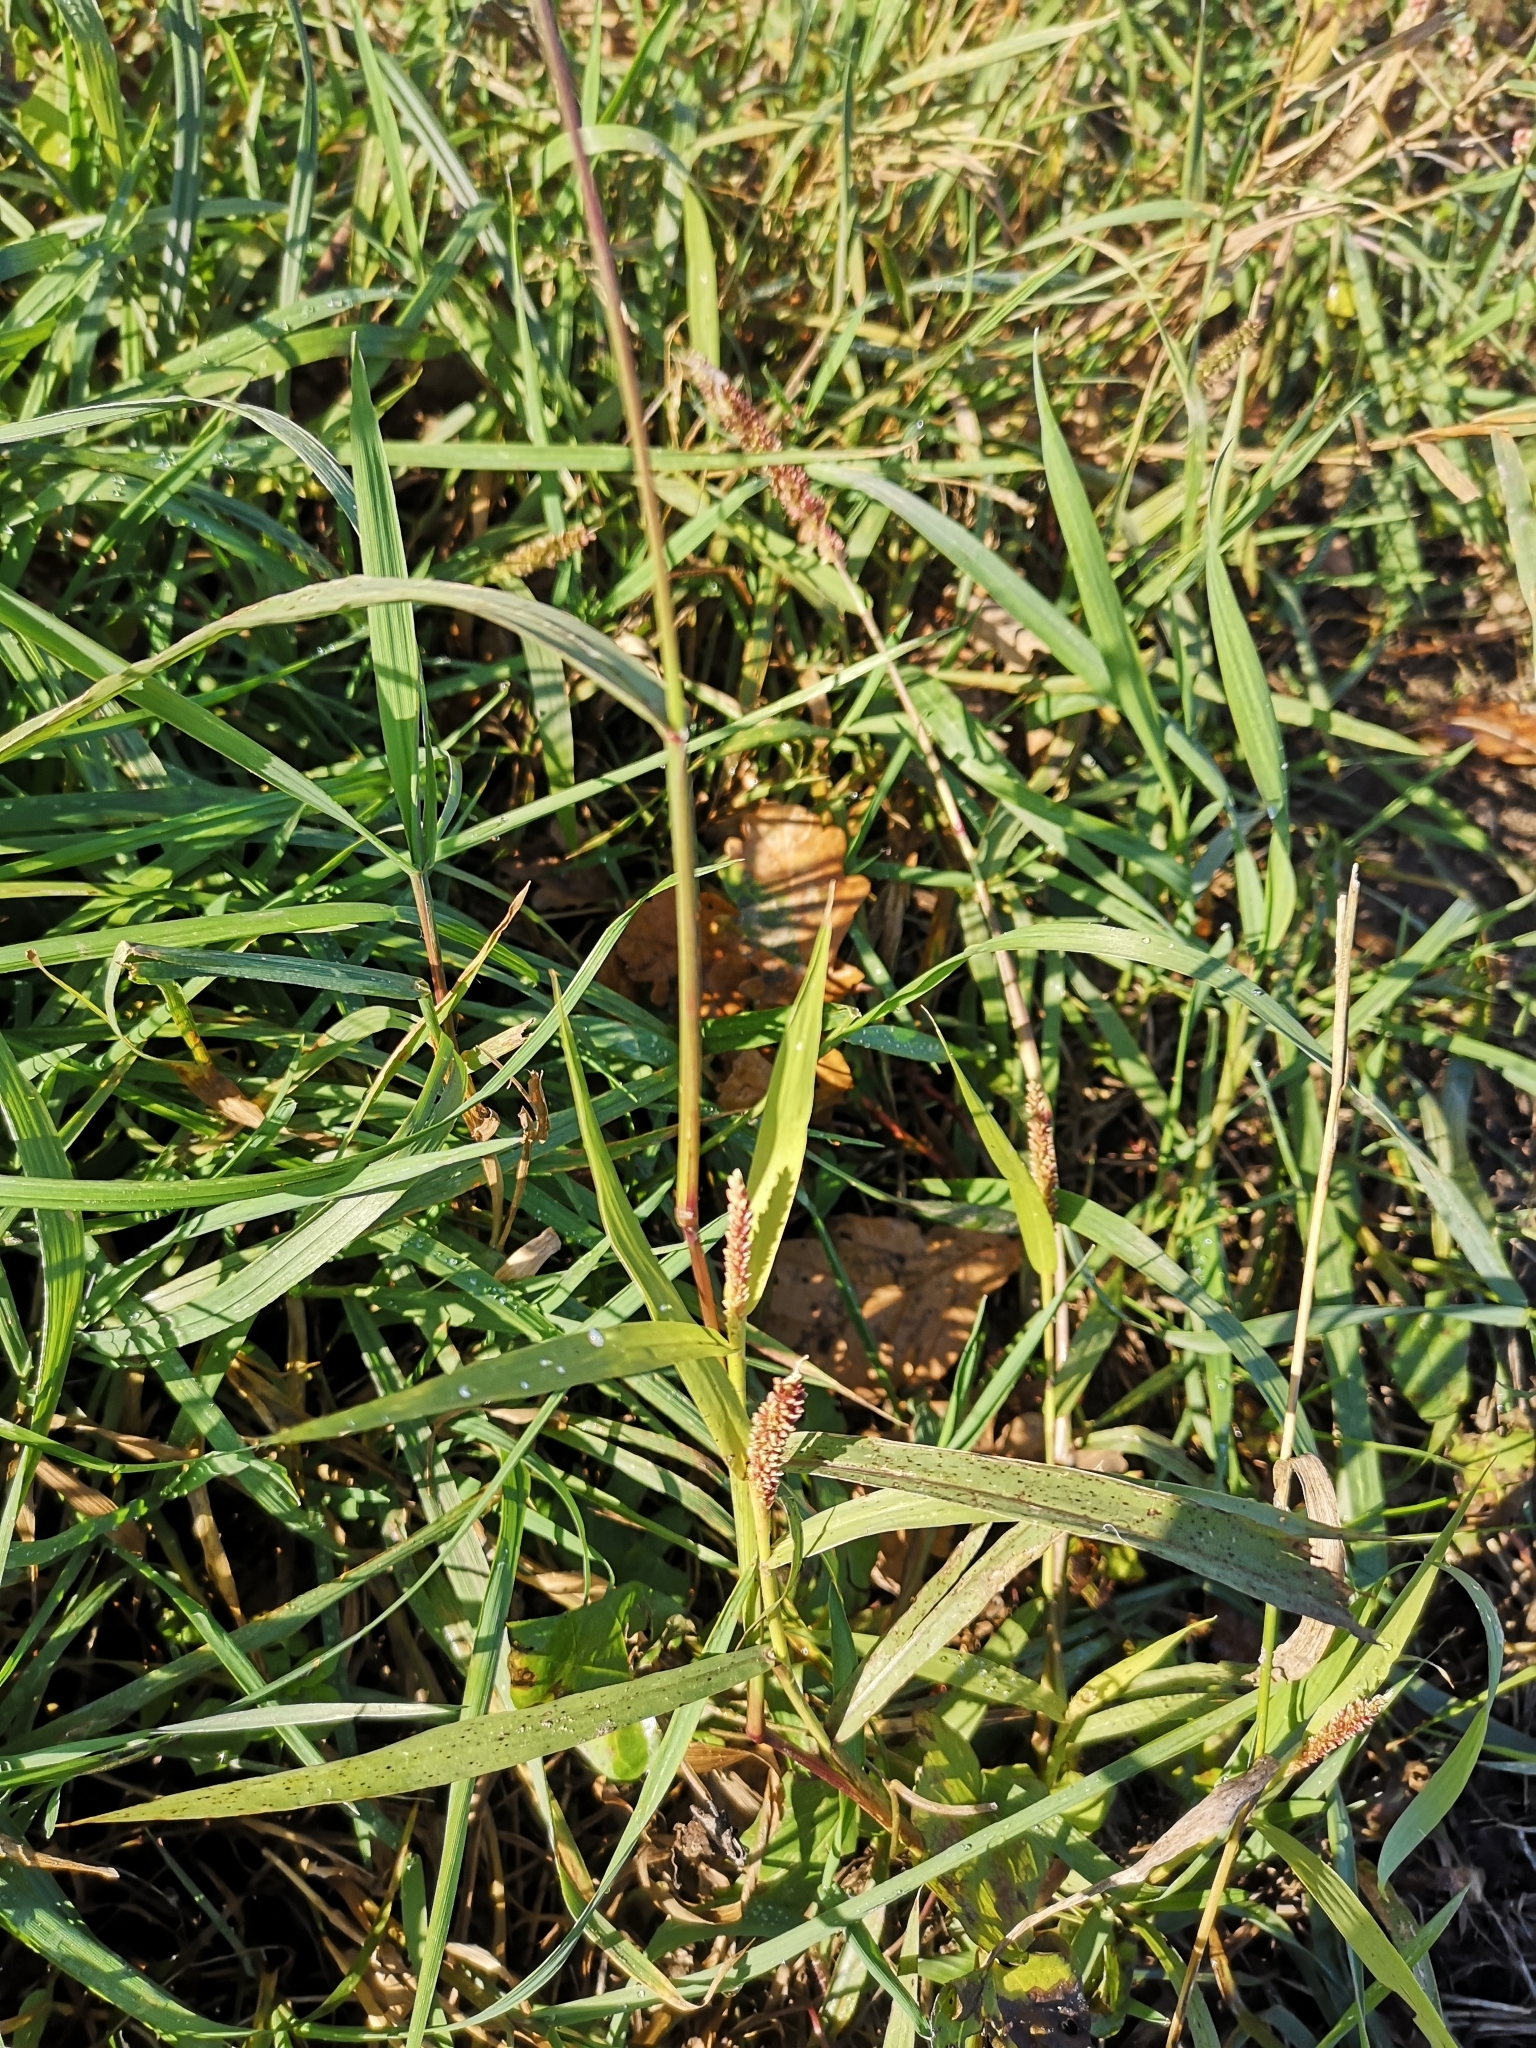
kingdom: Plantae
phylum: Tracheophyta
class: Liliopsida
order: Poales
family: Poaceae
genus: Setaria
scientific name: Setaria verticillata
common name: Hooked bristlegrass
